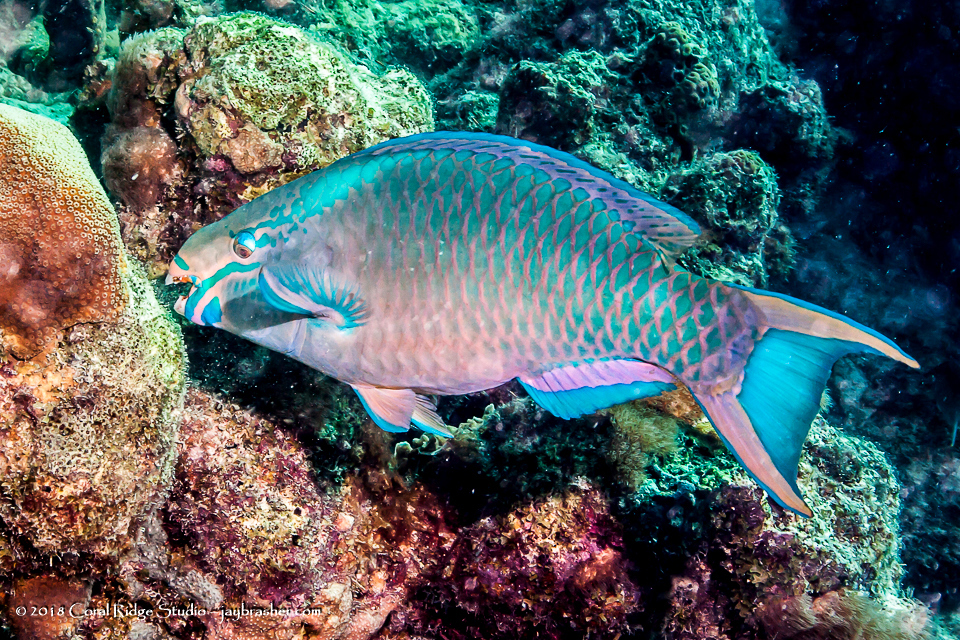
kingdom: Animalia
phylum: Chordata
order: Perciformes
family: Scaridae
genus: Scarus
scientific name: Scarus vetula
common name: Queen parrotfish
